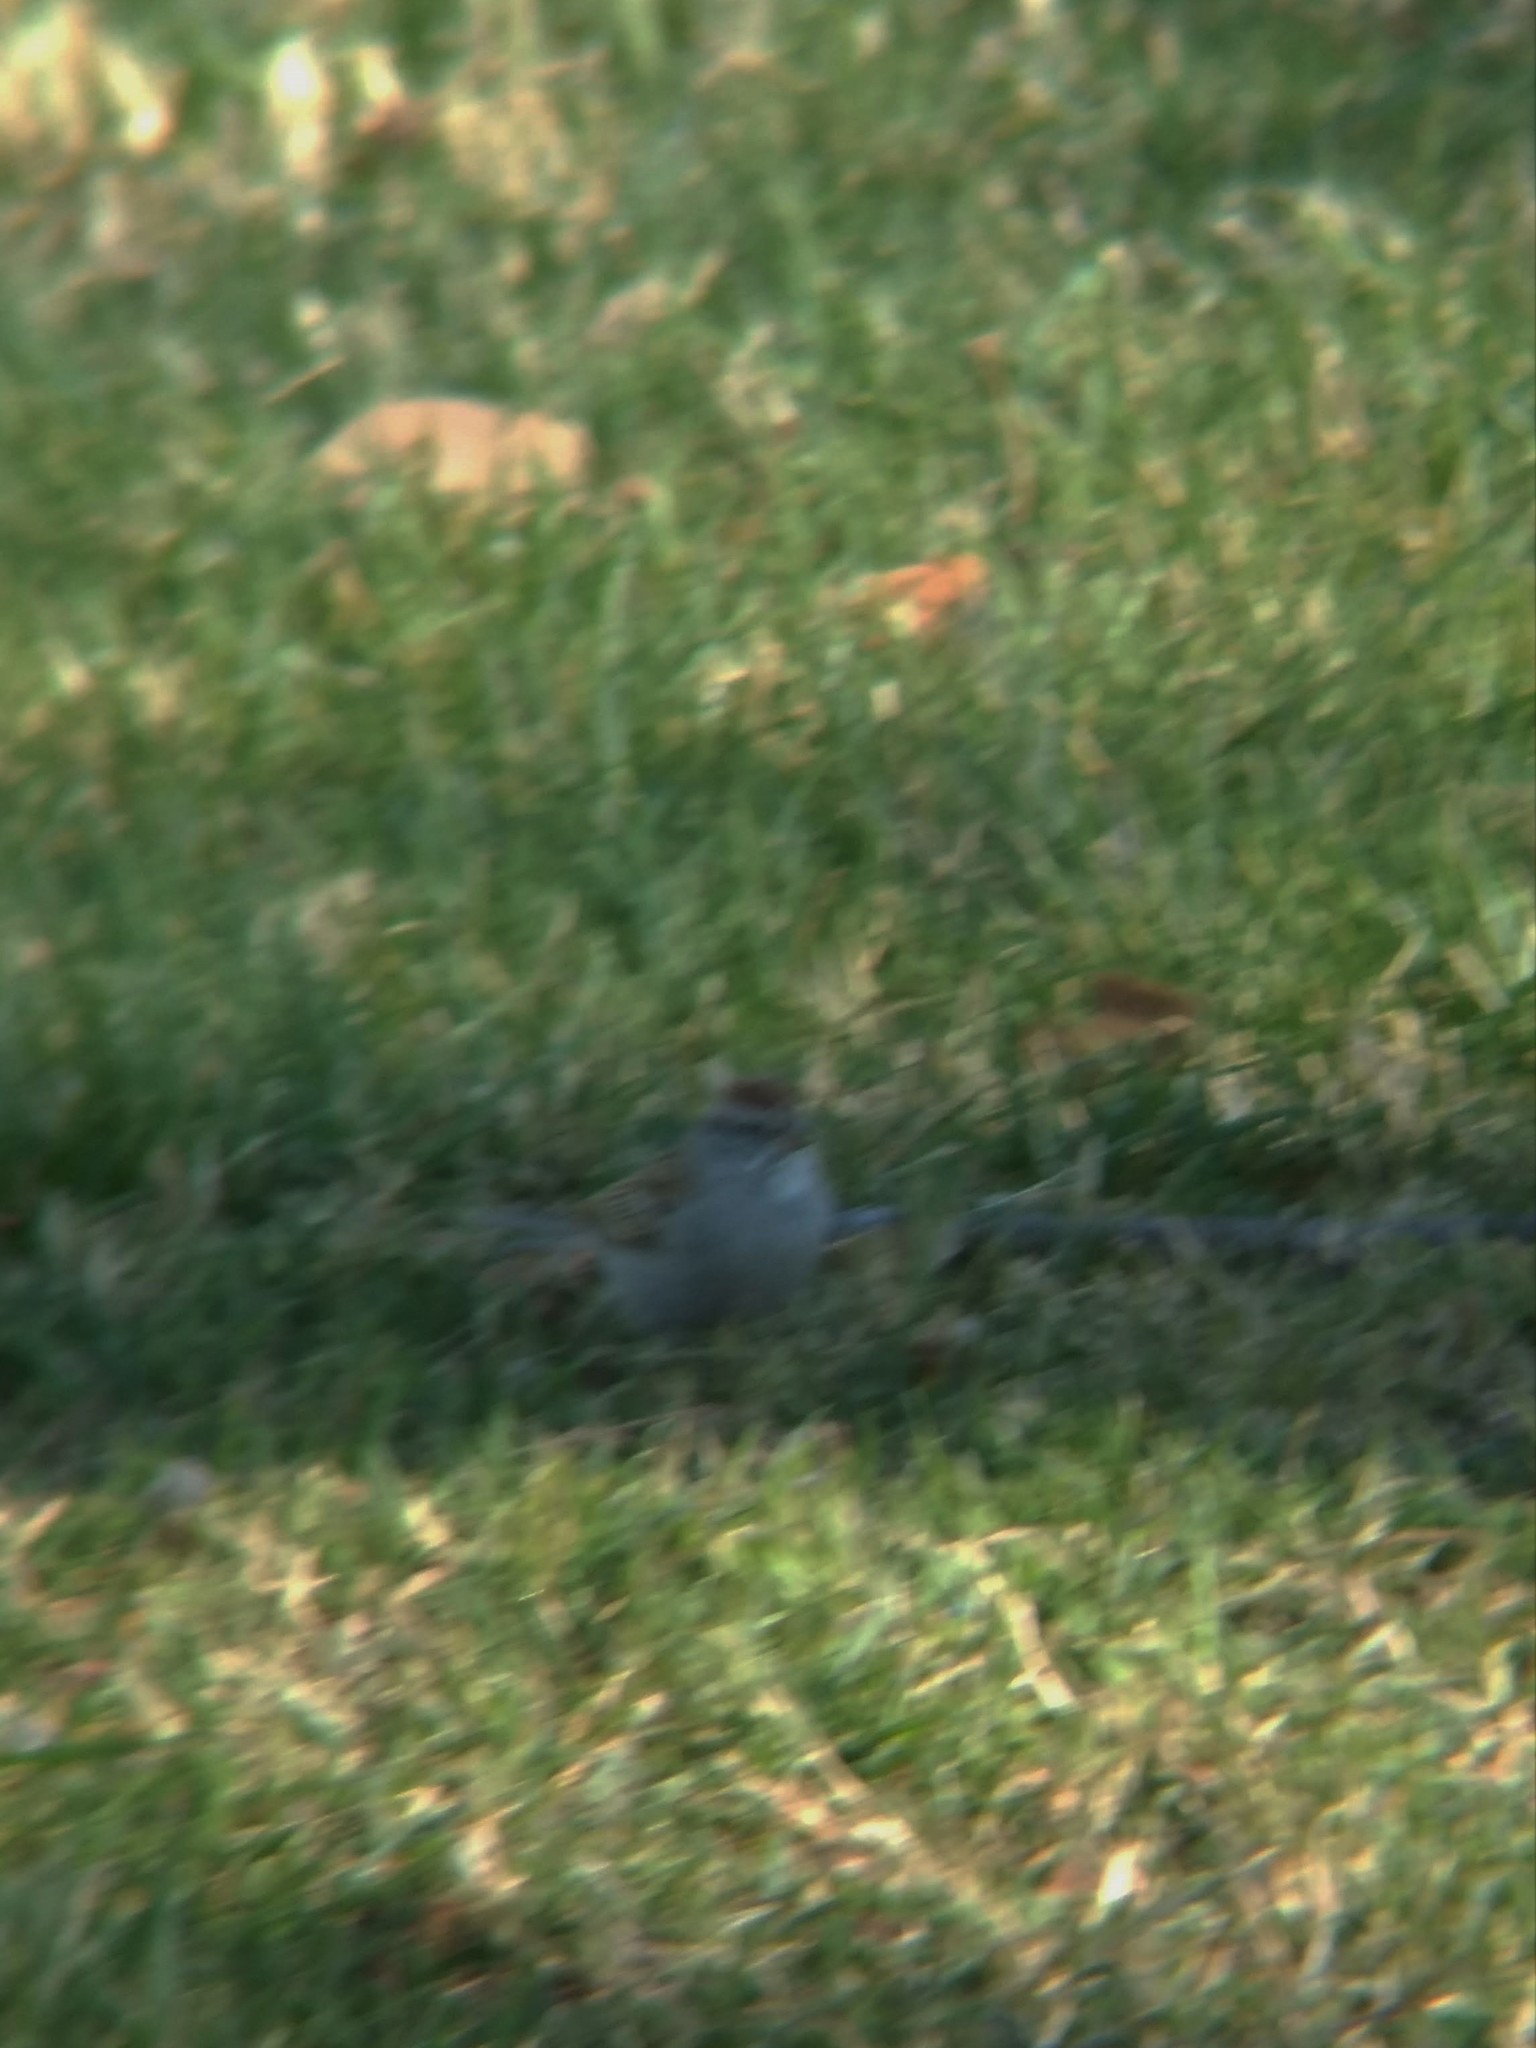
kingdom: Animalia
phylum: Chordata
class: Aves
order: Passeriformes
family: Passerellidae
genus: Spizella
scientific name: Spizella passerina
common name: Chipping sparrow
